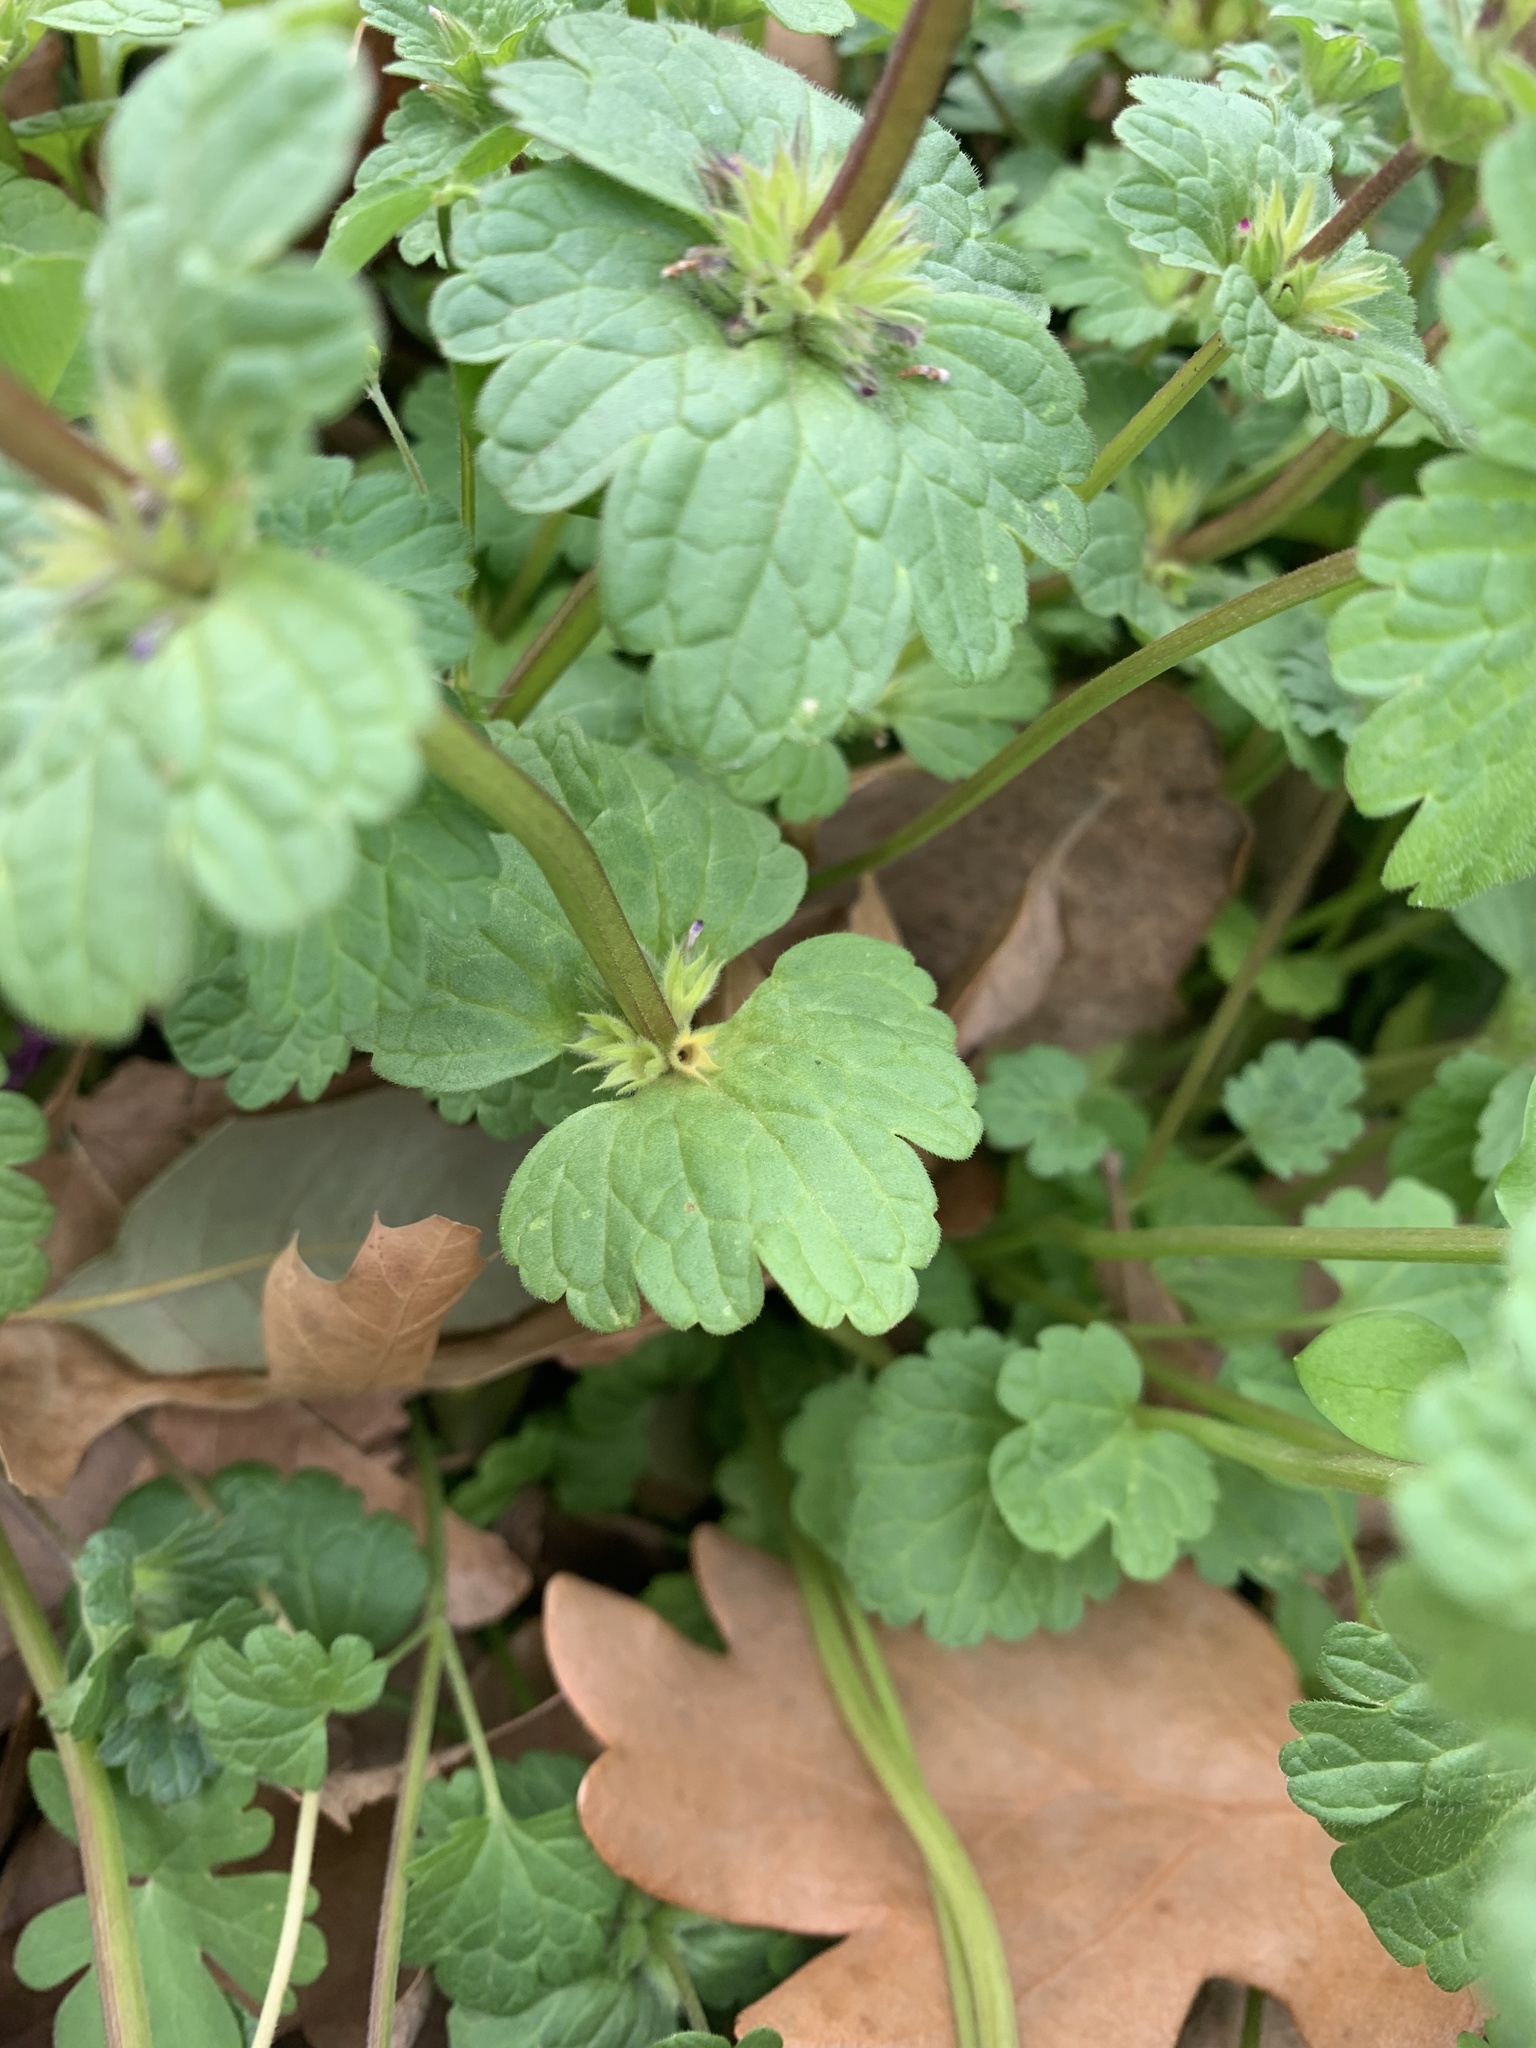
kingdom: Plantae
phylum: Tracheophyta
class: Magnoliopsida
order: Lamiales
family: Lamiaceae
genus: Lamium
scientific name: Lamium amplexicaule
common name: Henbit dead-nettle
